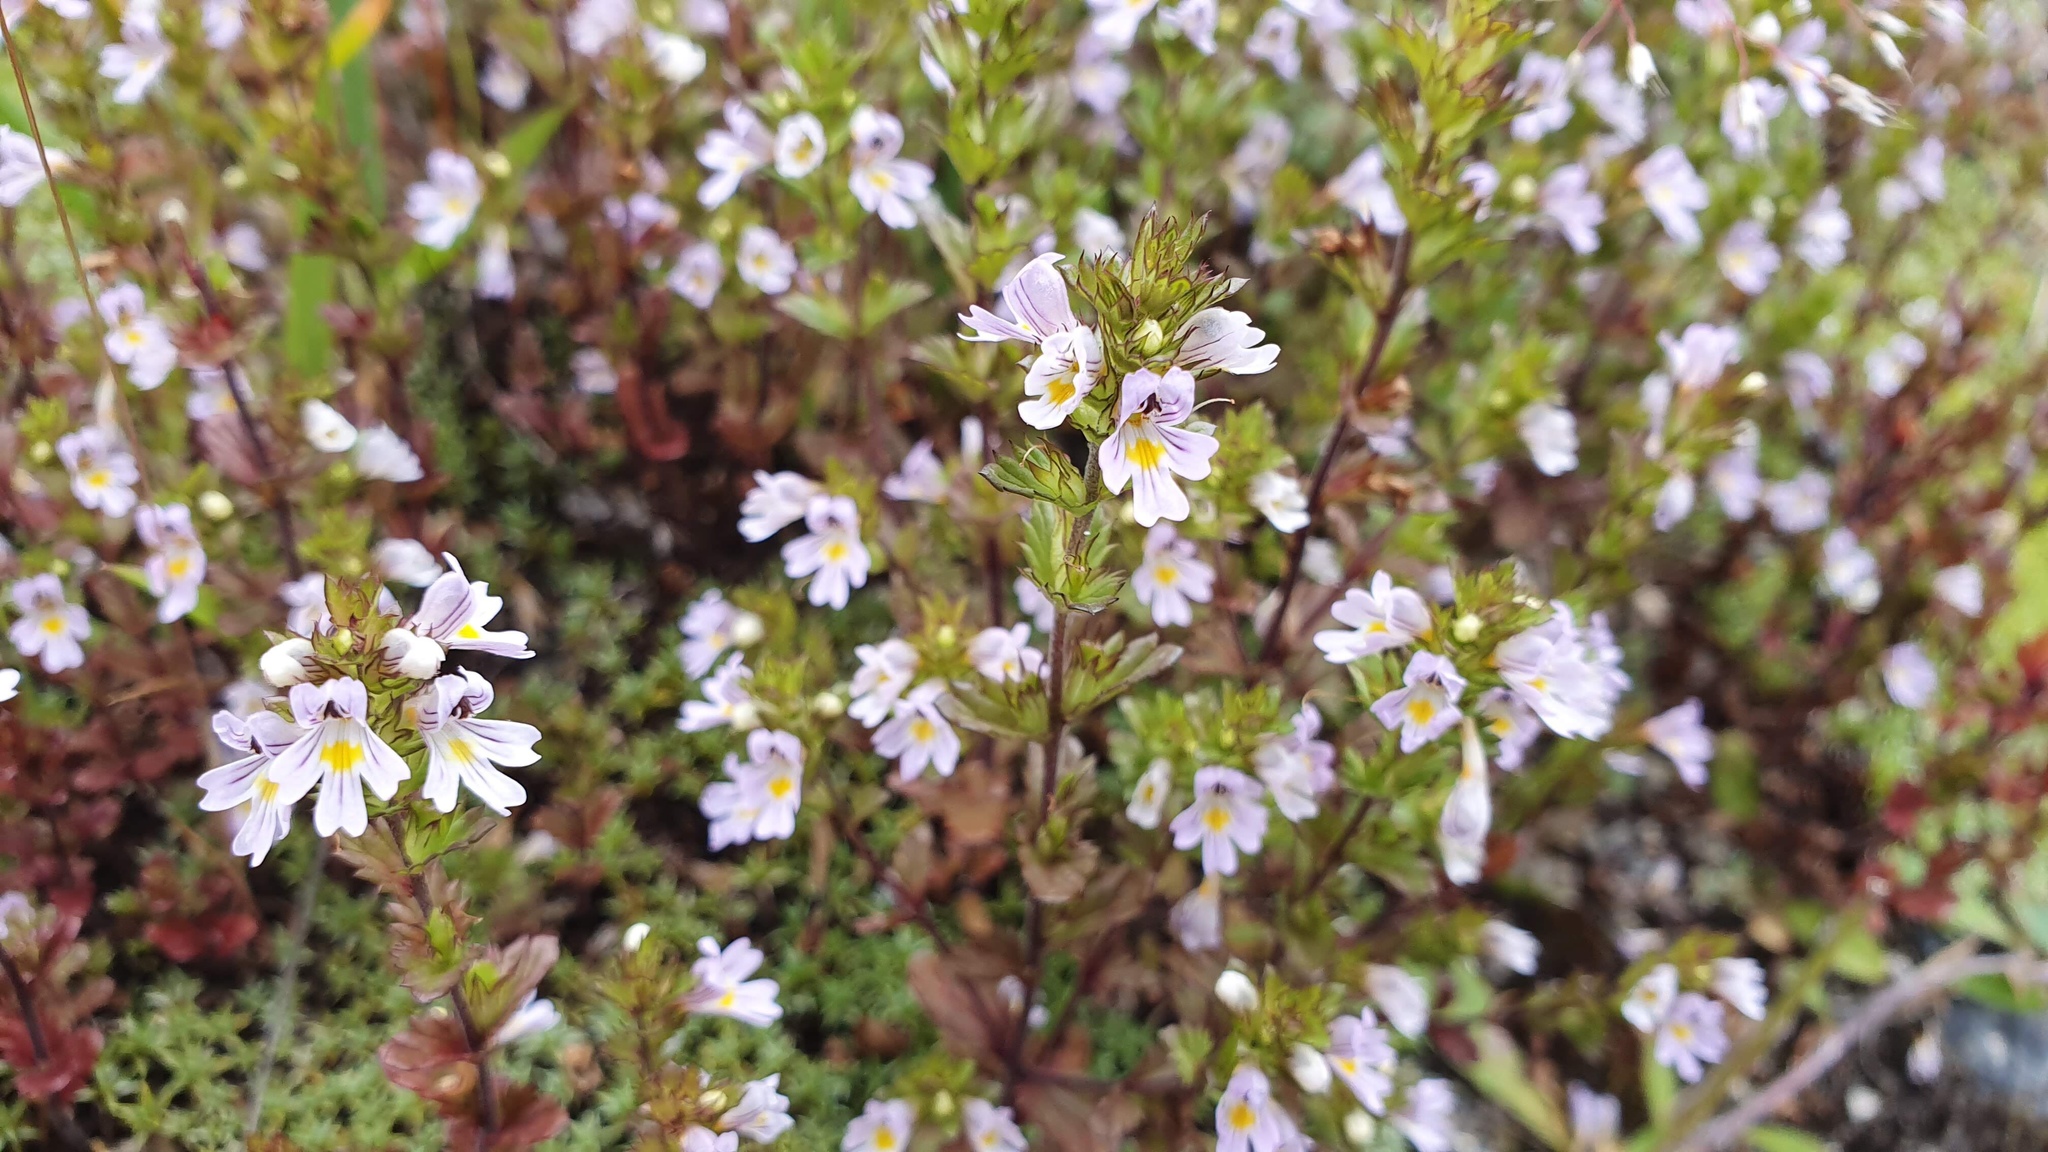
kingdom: Plantae
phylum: Tracheophyta
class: Magnoliopsida
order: Lamiales
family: Orobanchaceae
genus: Euphrasia
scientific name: Euphrasia nemorosa
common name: Common eyebright
